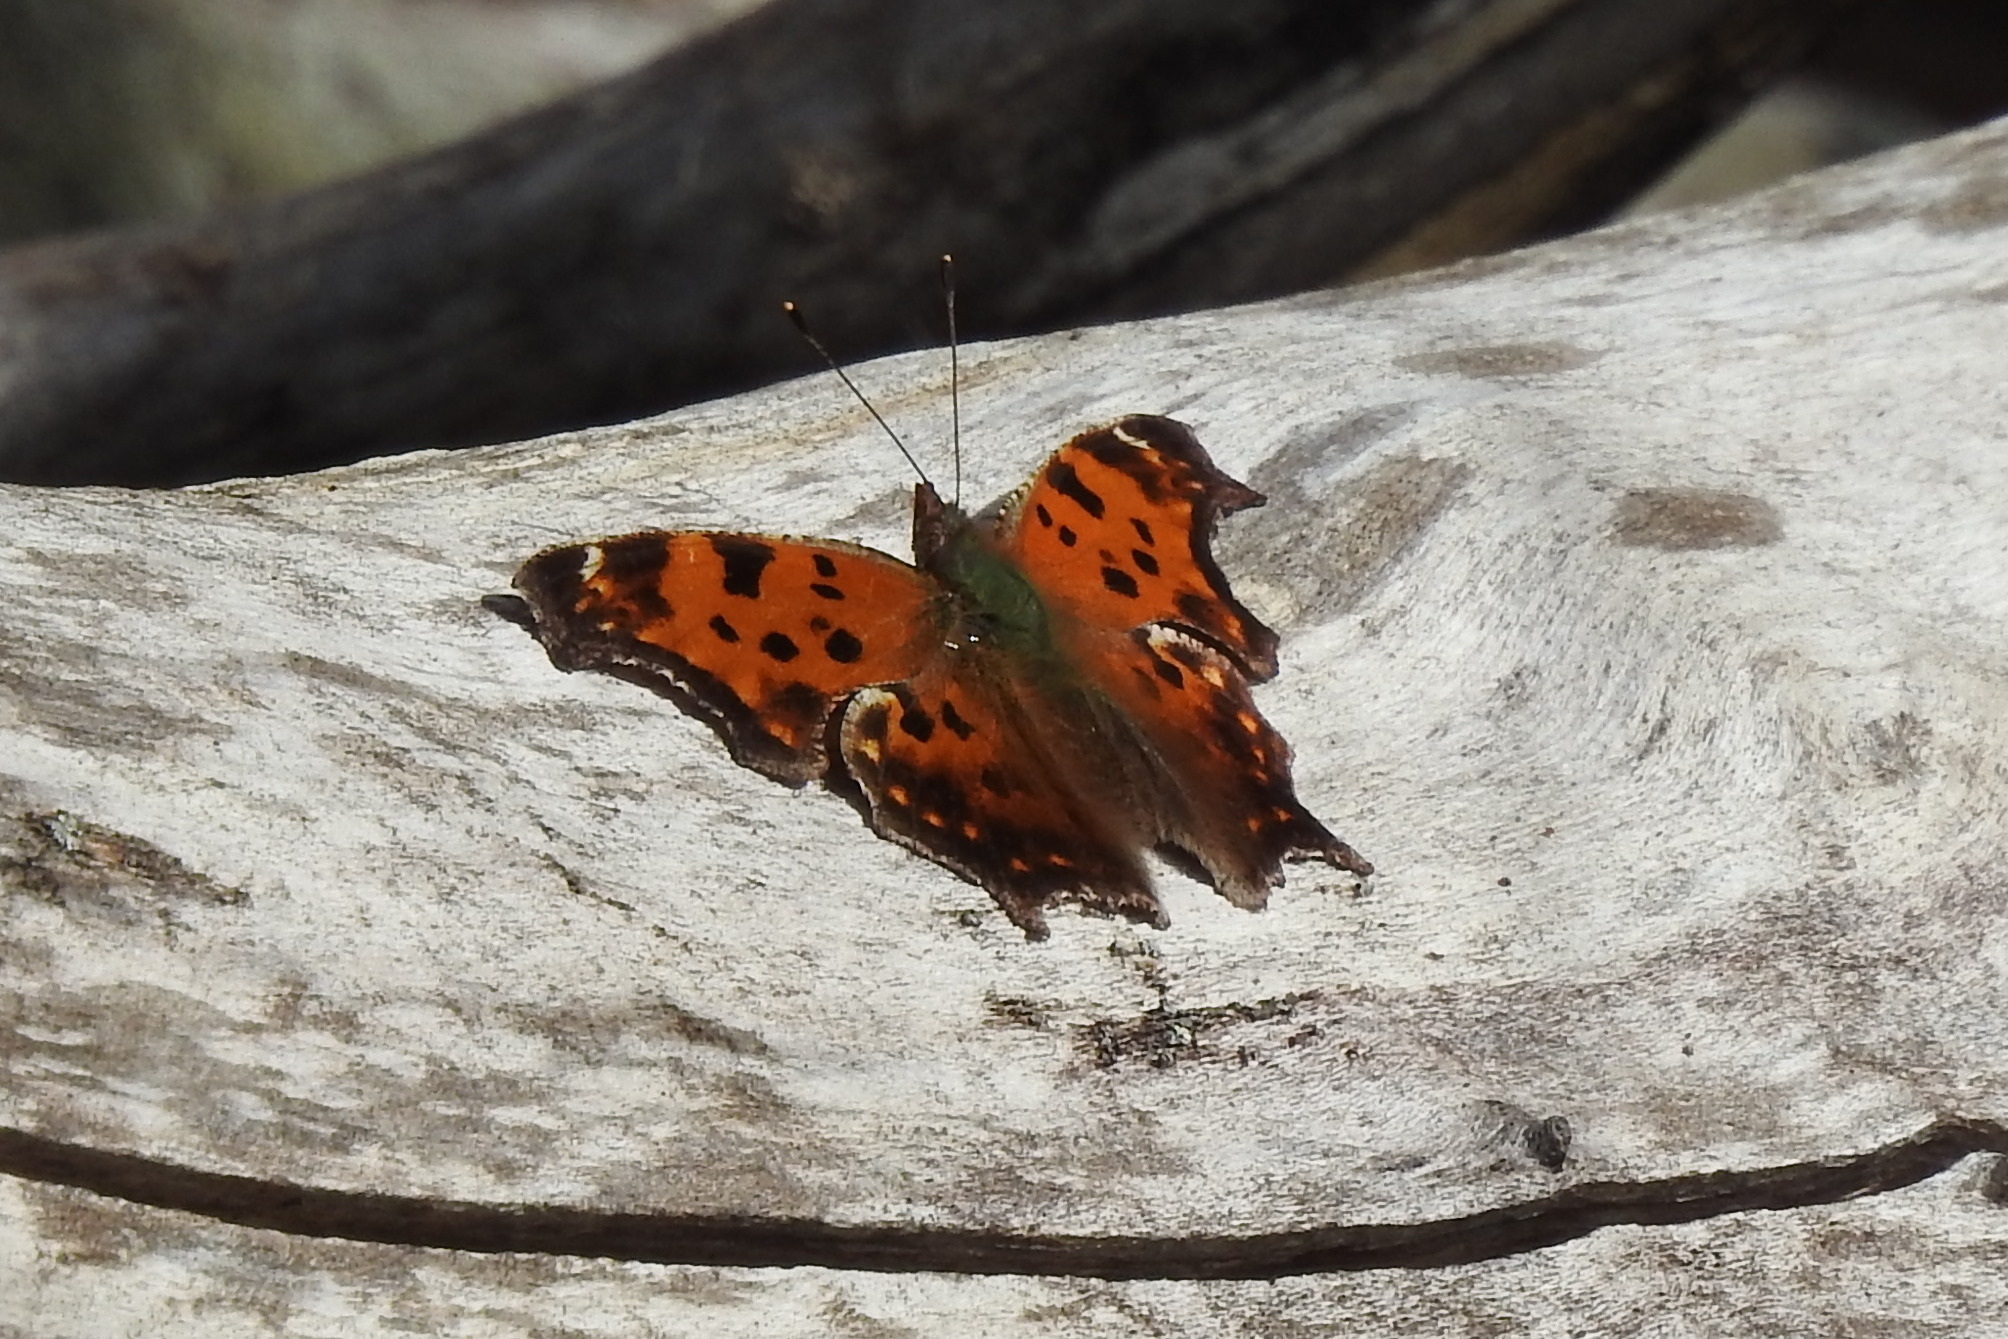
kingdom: Animalia
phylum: Arthropoda
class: Insecta
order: Lepidoptera
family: Nymphalidae
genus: Polygonia
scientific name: Polygonia comma
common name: Eastern comma
